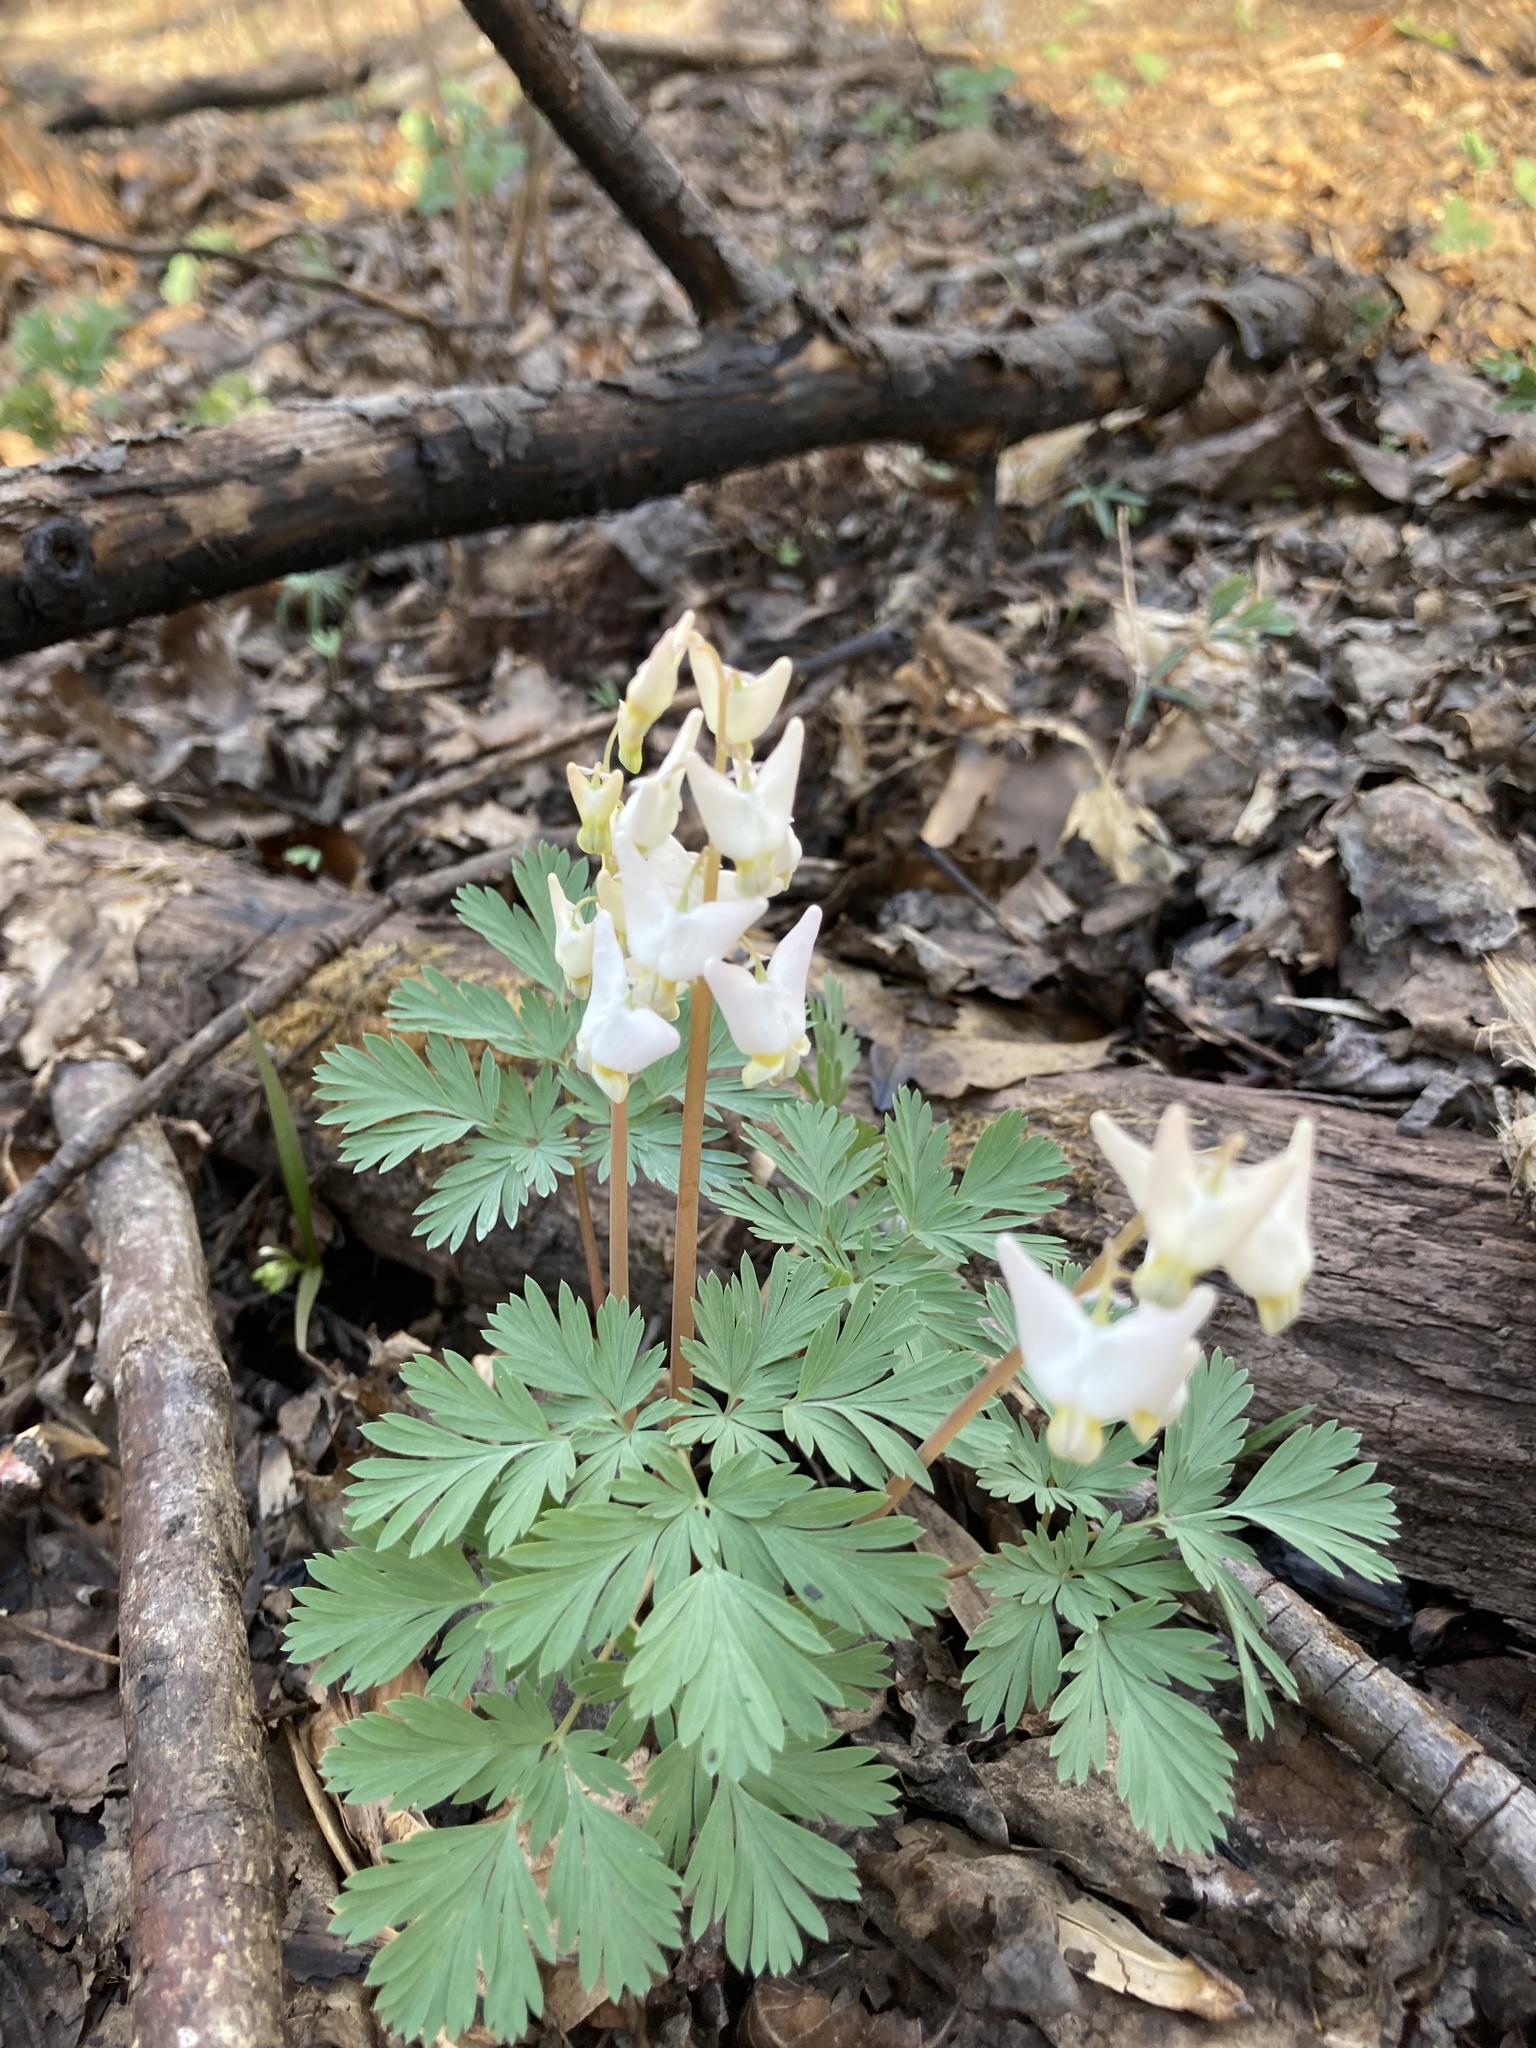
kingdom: Plantae
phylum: Tracheophyta
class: Magnoliopsida
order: Ranunculales
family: Papaveraceae
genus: Dicentra
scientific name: Dicentra cucullaria
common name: Dutchman's breeches
